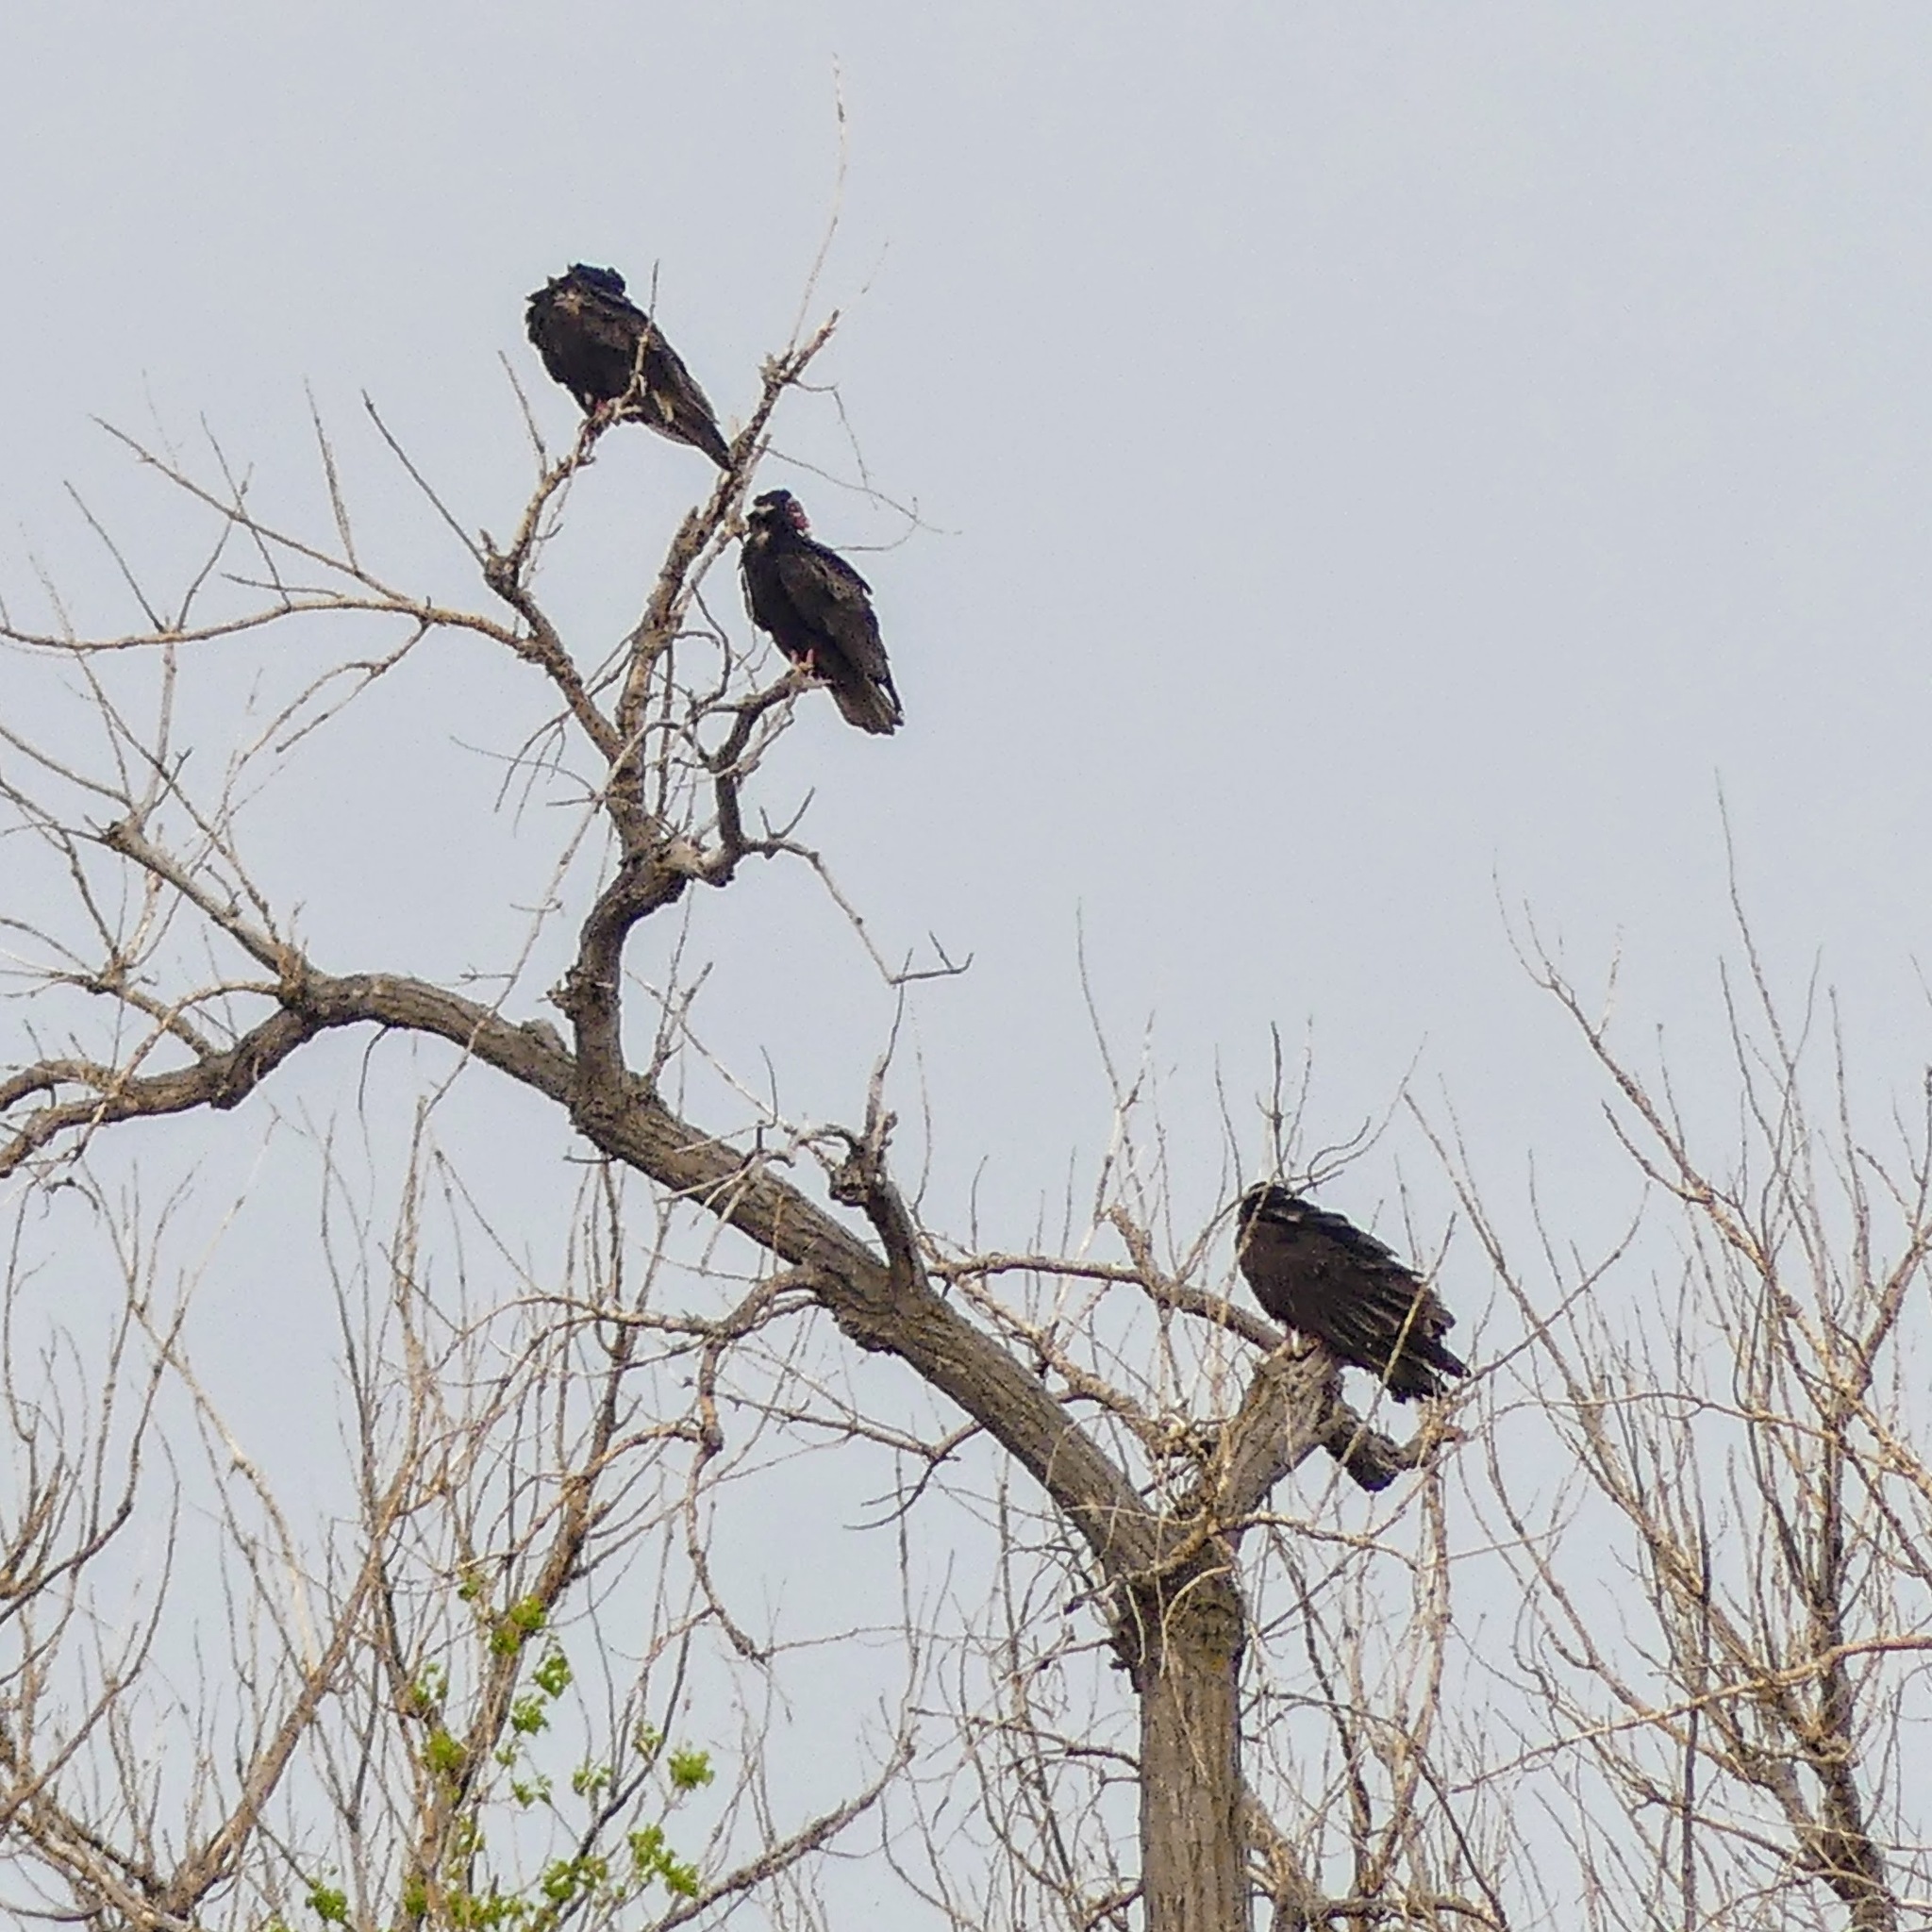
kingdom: Animalia
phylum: Chordata
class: Aves
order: Accipitriformes
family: Cathartidae
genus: Cathartes
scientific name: Cathartes aura
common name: Turkey vulture
